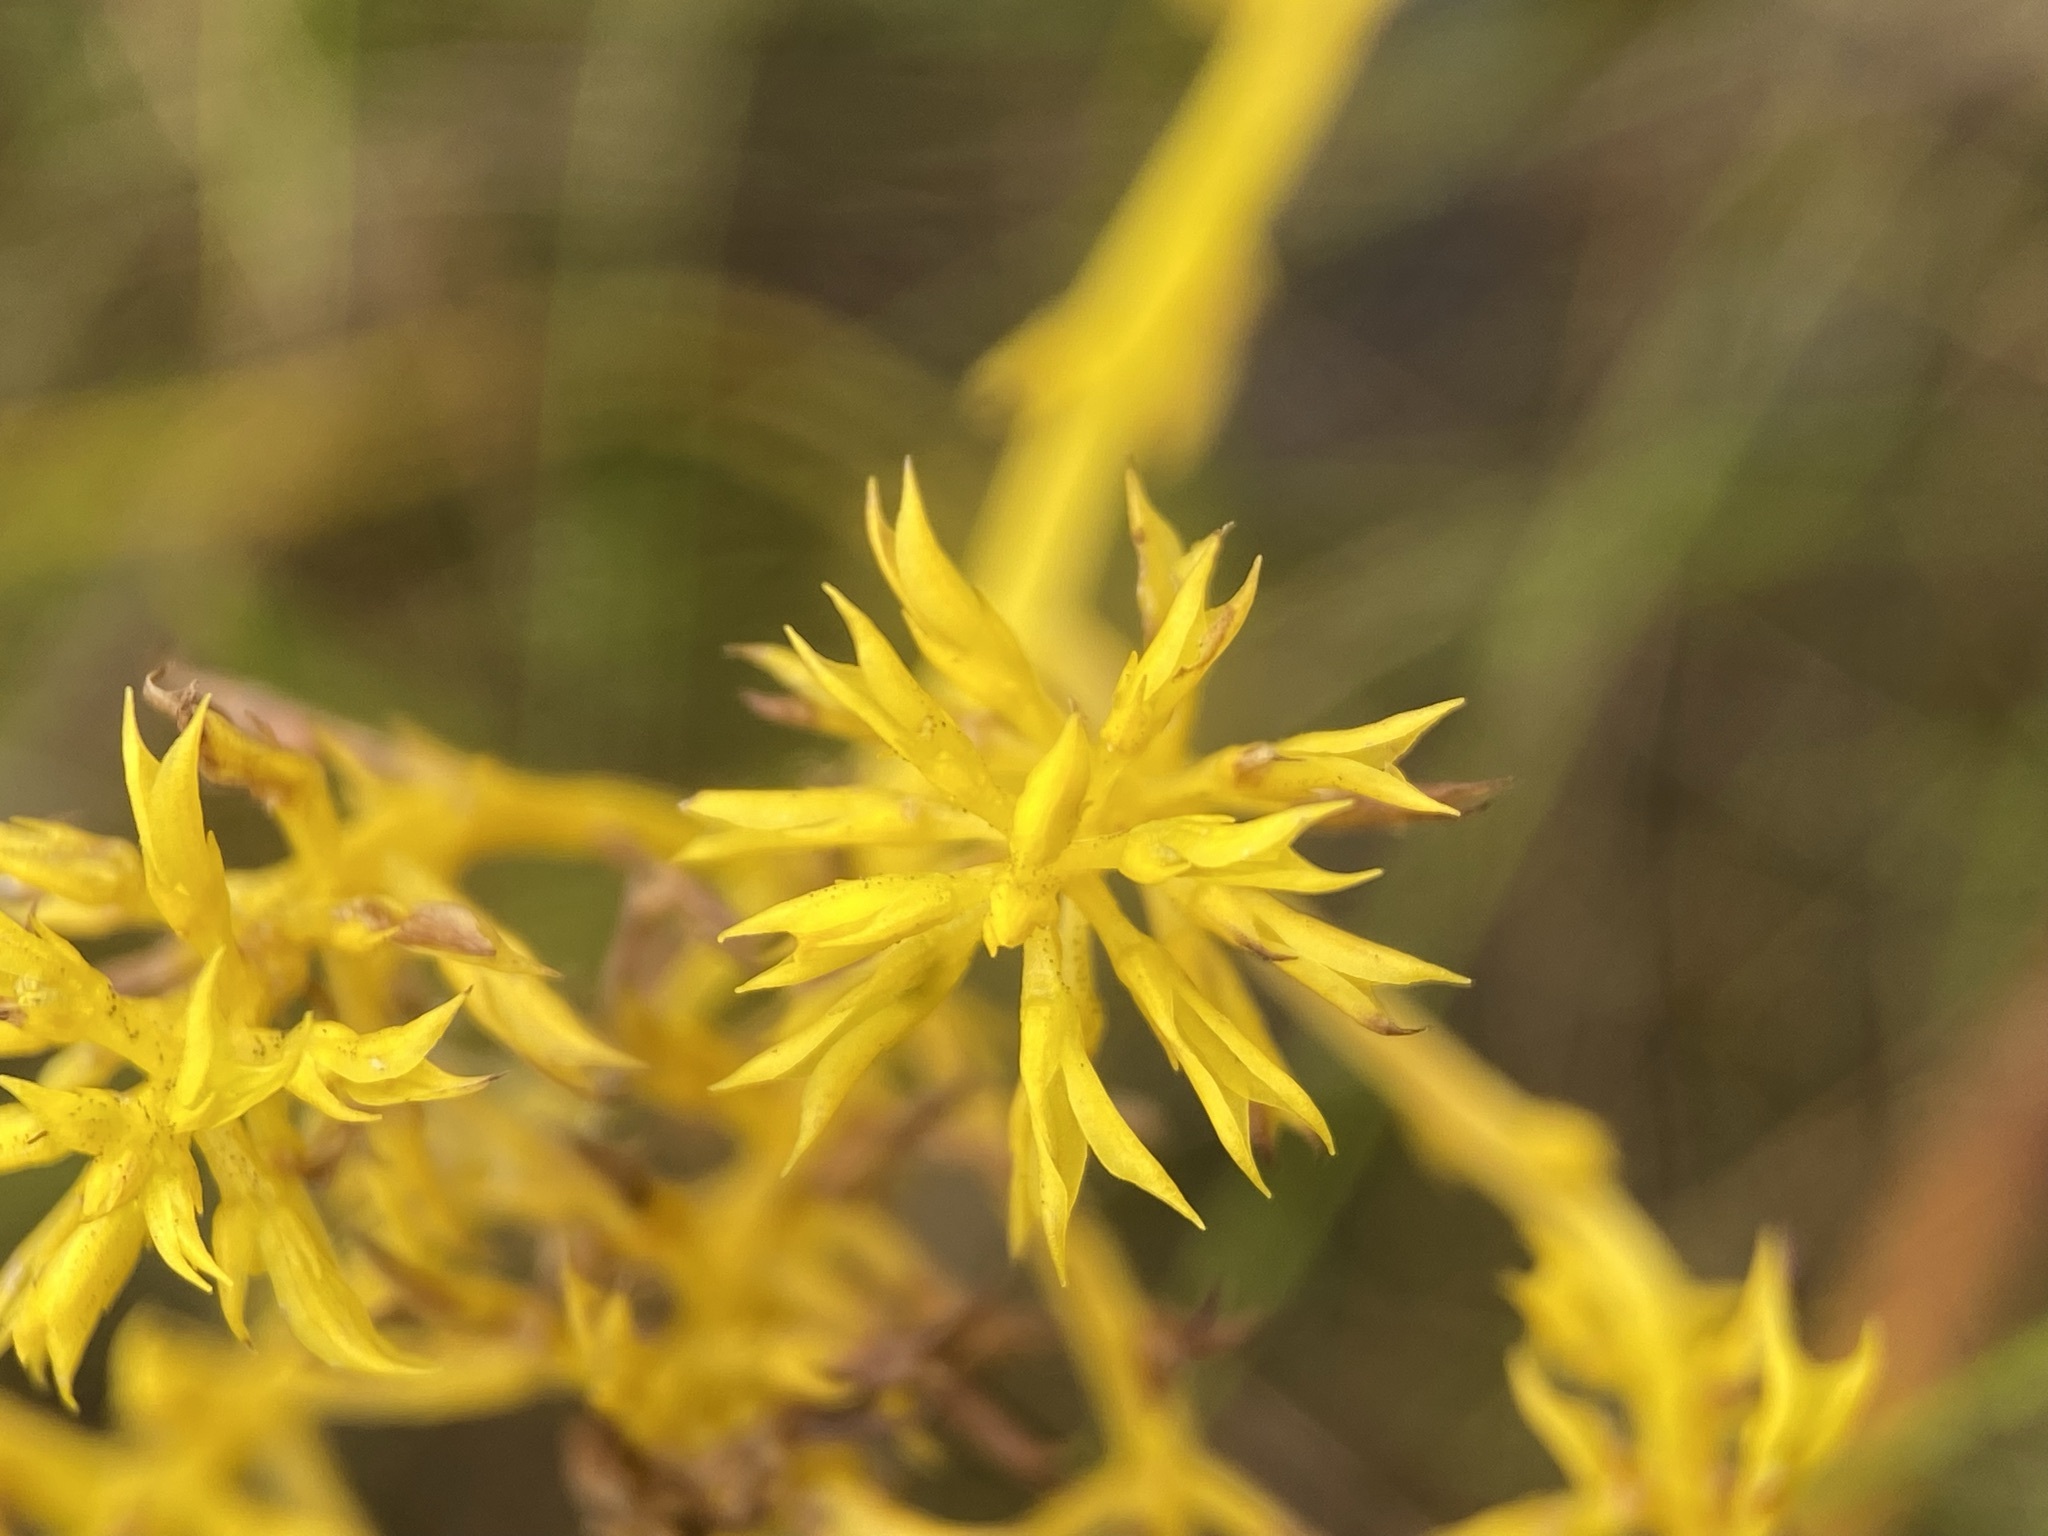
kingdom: Plantae
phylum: Tracheophyta
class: Magnoliopsida
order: Fabales
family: Polygalaceae
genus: Polygala
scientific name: Polygala ramosa
